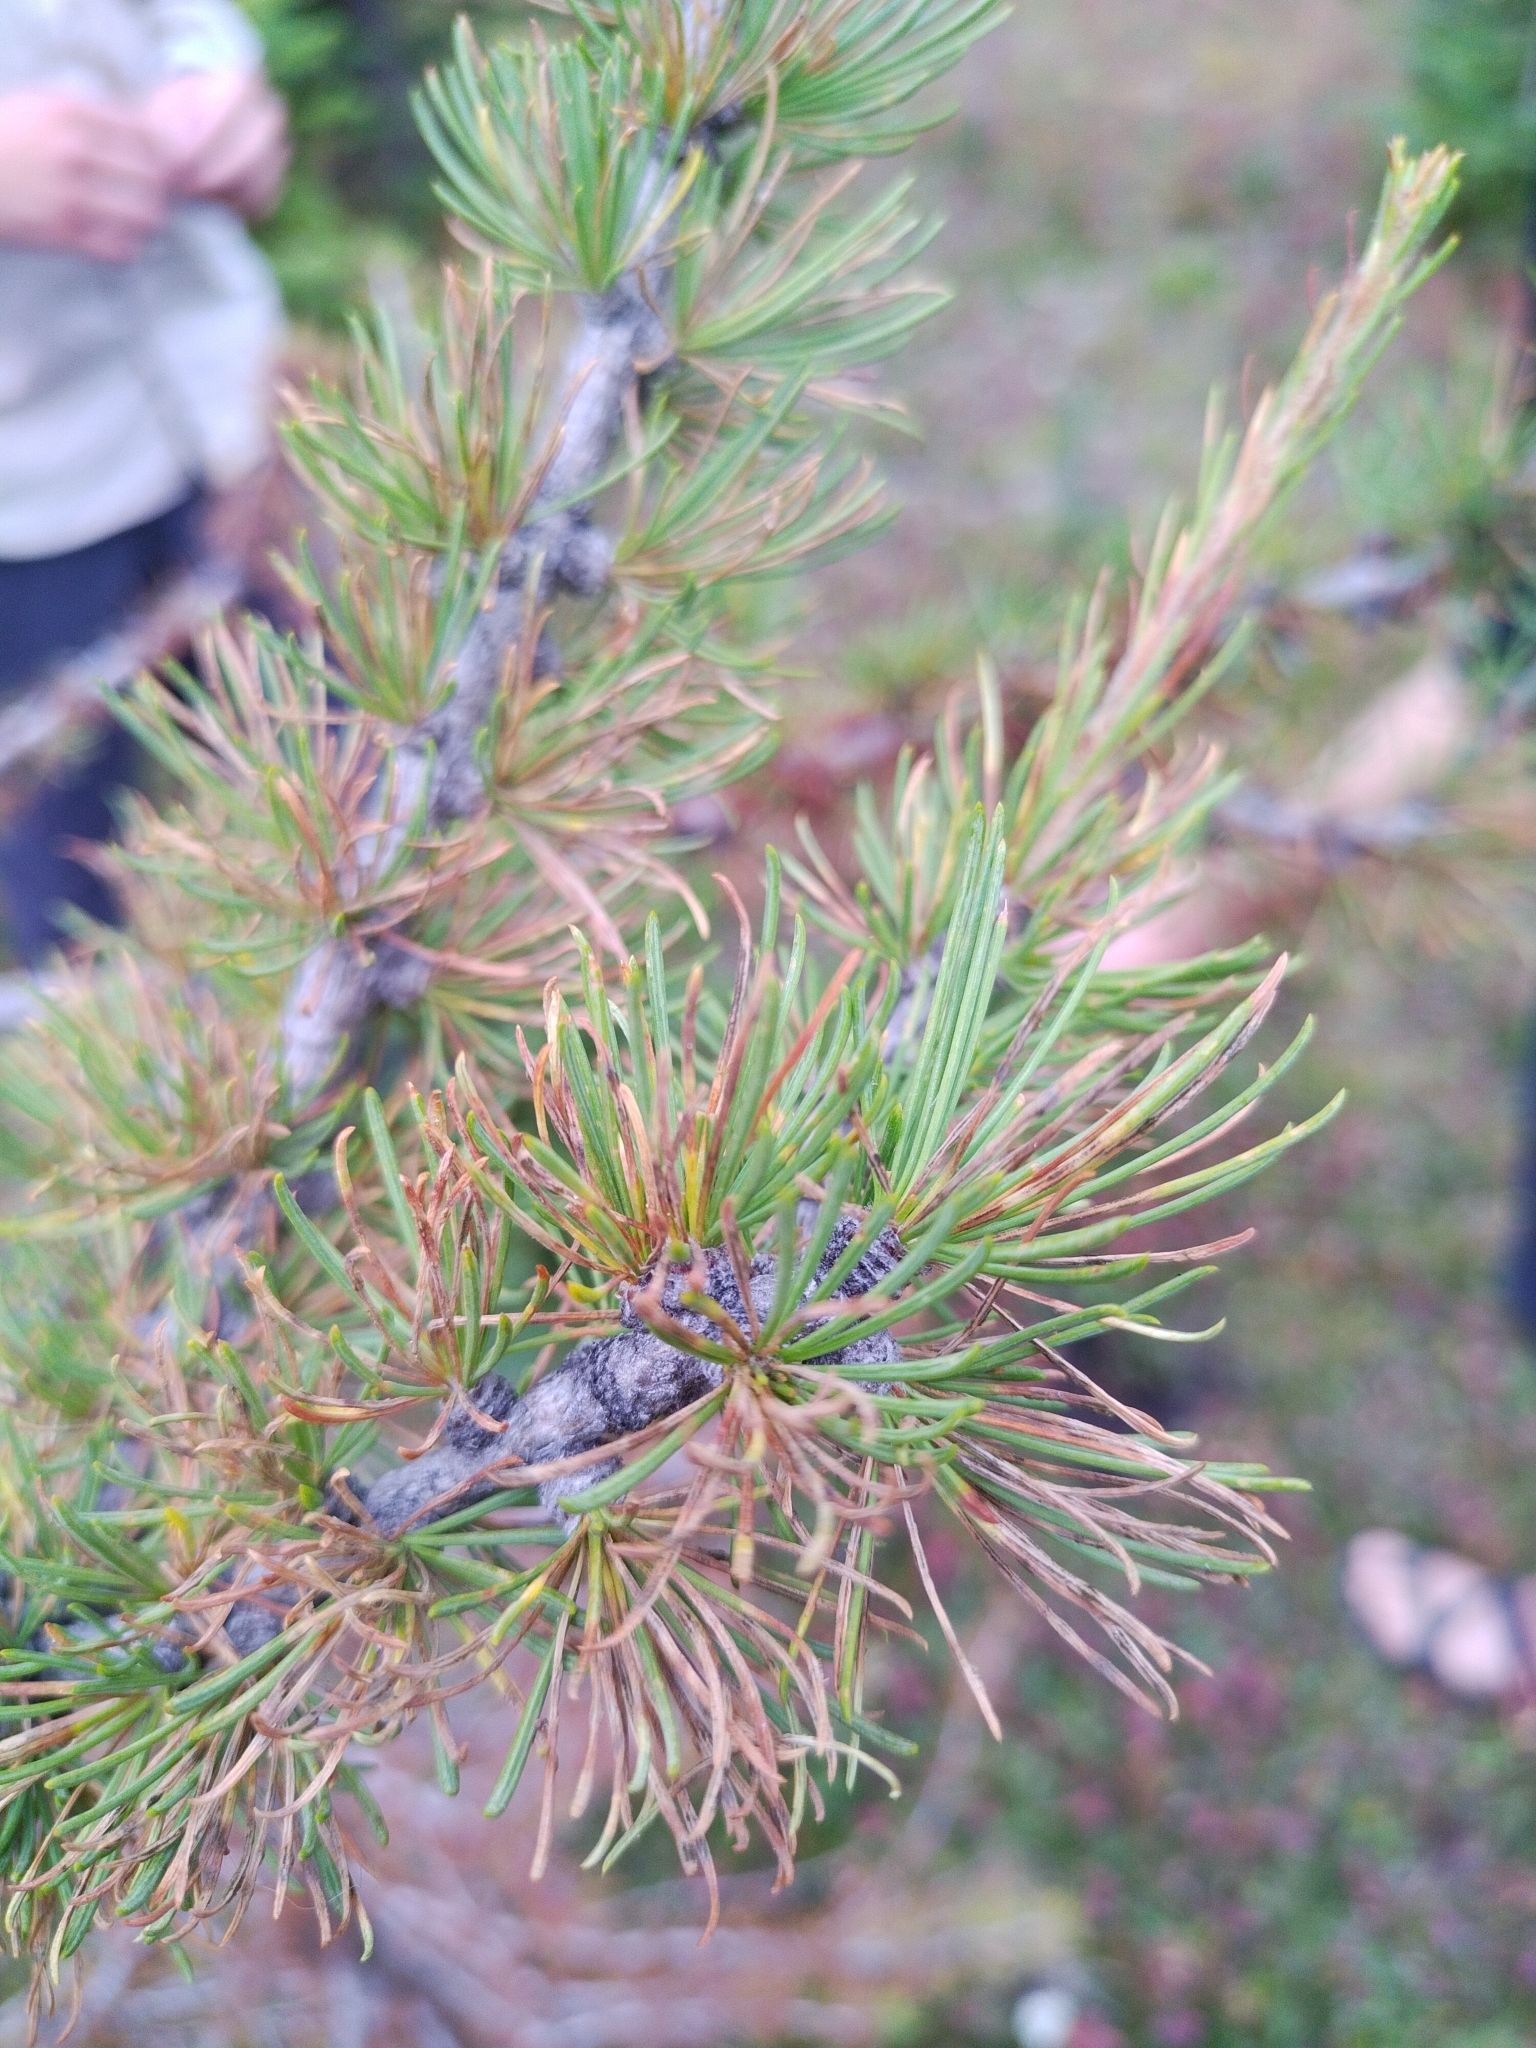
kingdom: Plantae
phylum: Tracheophyta
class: Pinopsida
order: Pinales
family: Pinaceae
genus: Larix
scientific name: Larix lyallii
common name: Alpine larch
